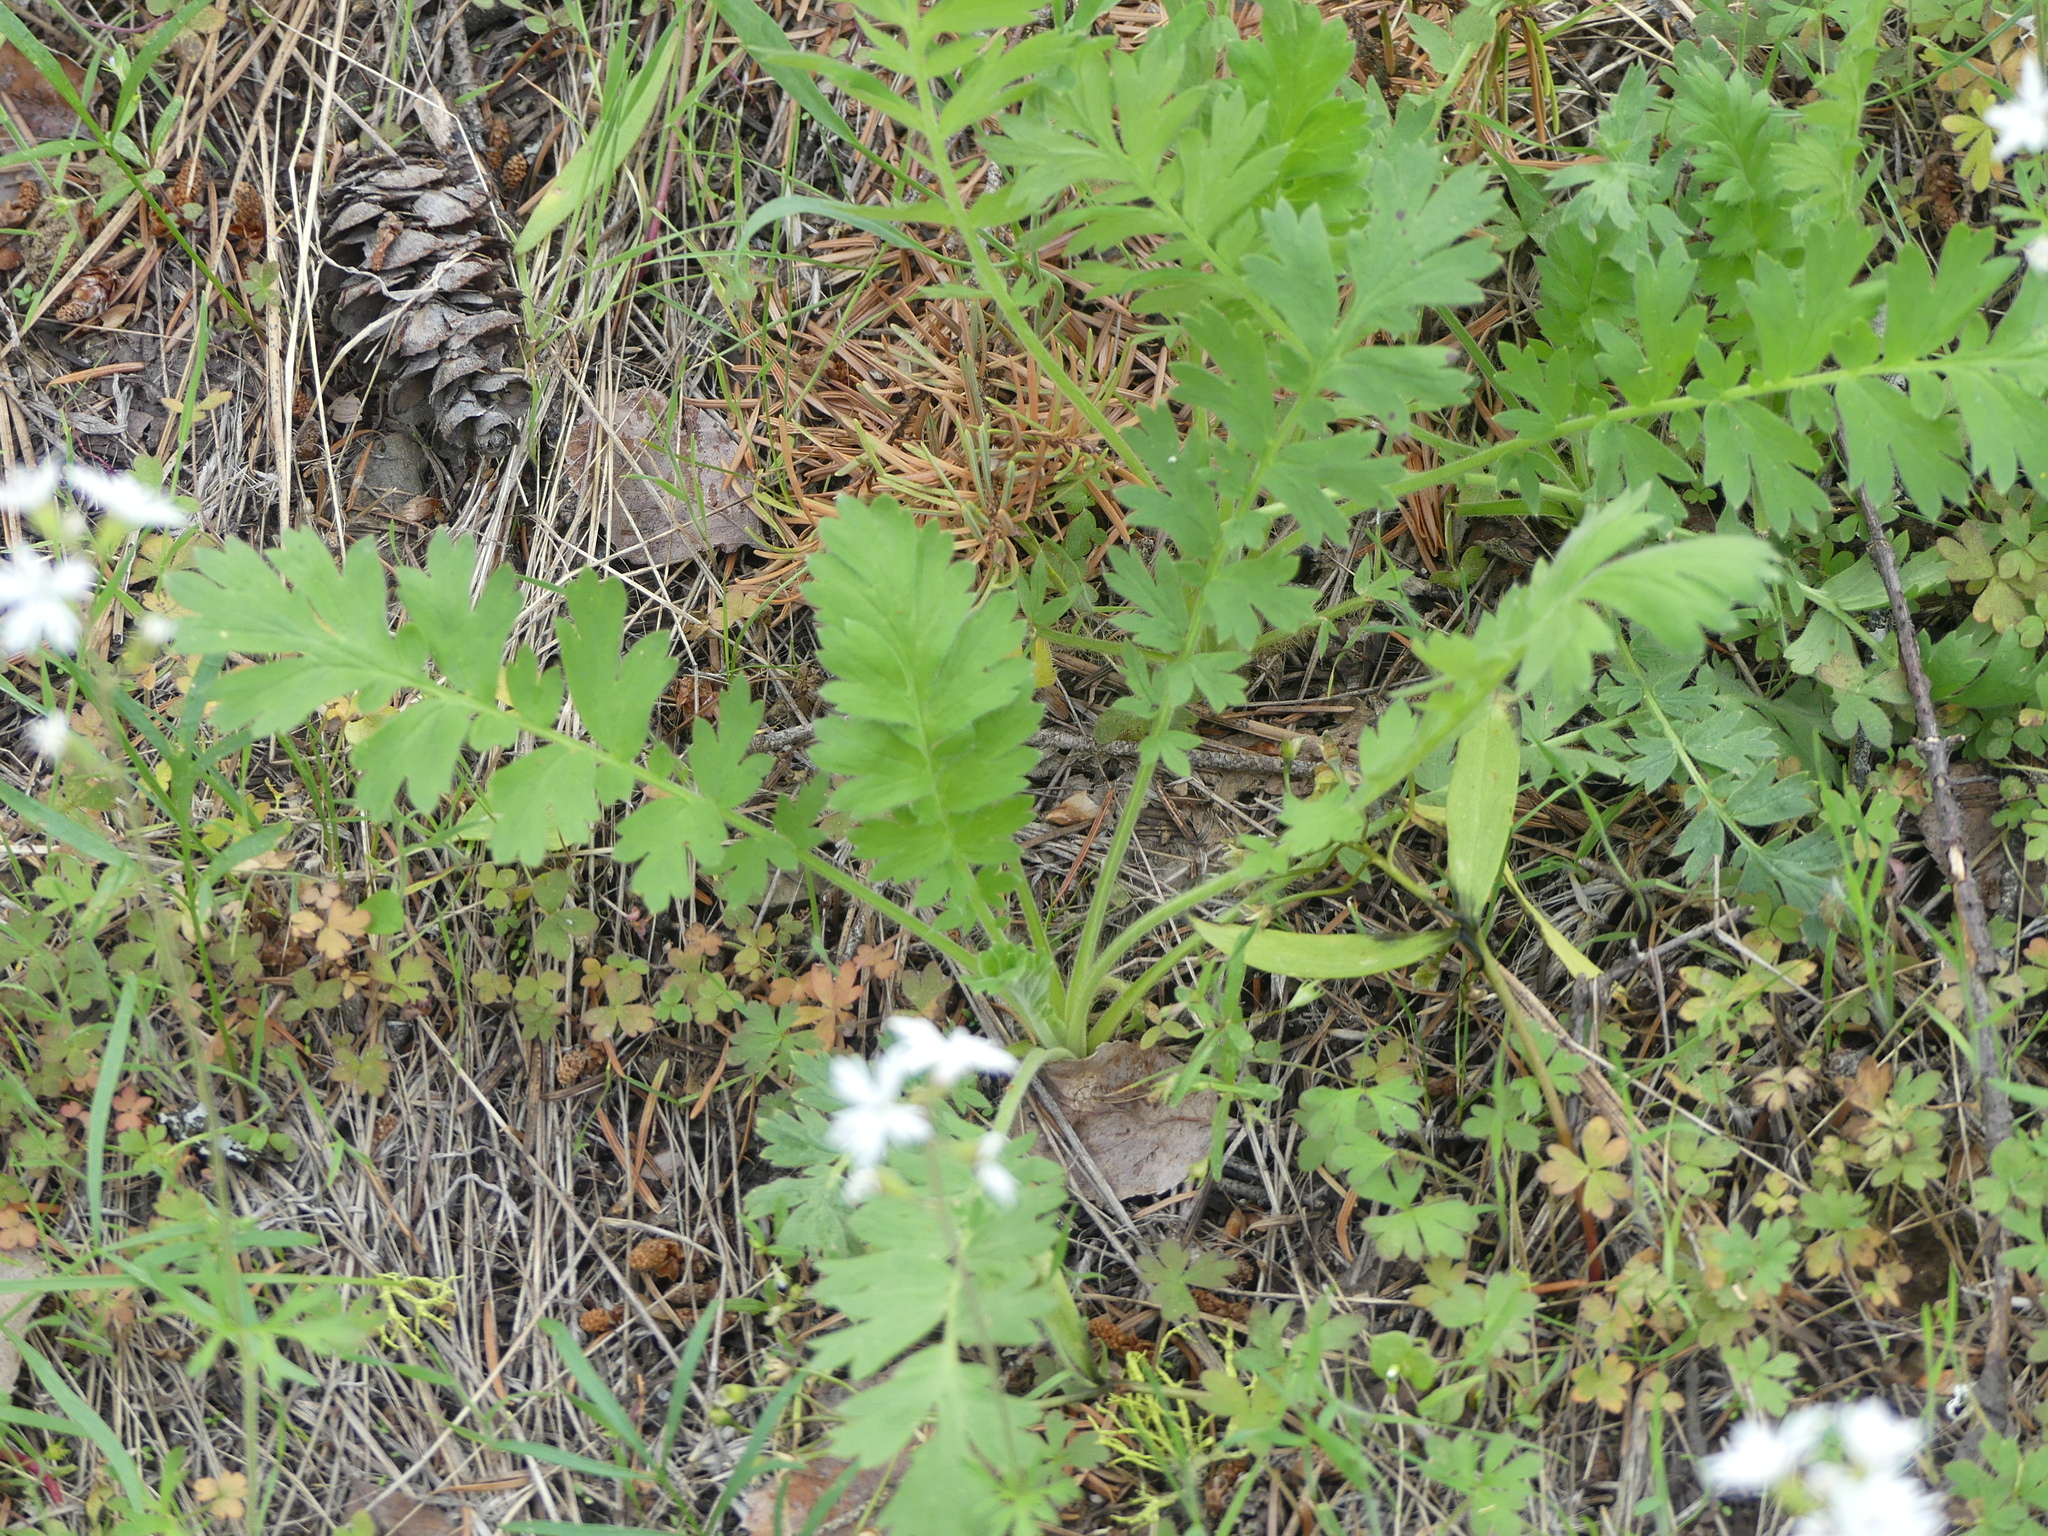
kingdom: Plantae
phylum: Tracheophyta
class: Magnoliopsida
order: Rosales
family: Rosaceae
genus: Geum
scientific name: Geum triflorum
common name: Old man's whiskers
